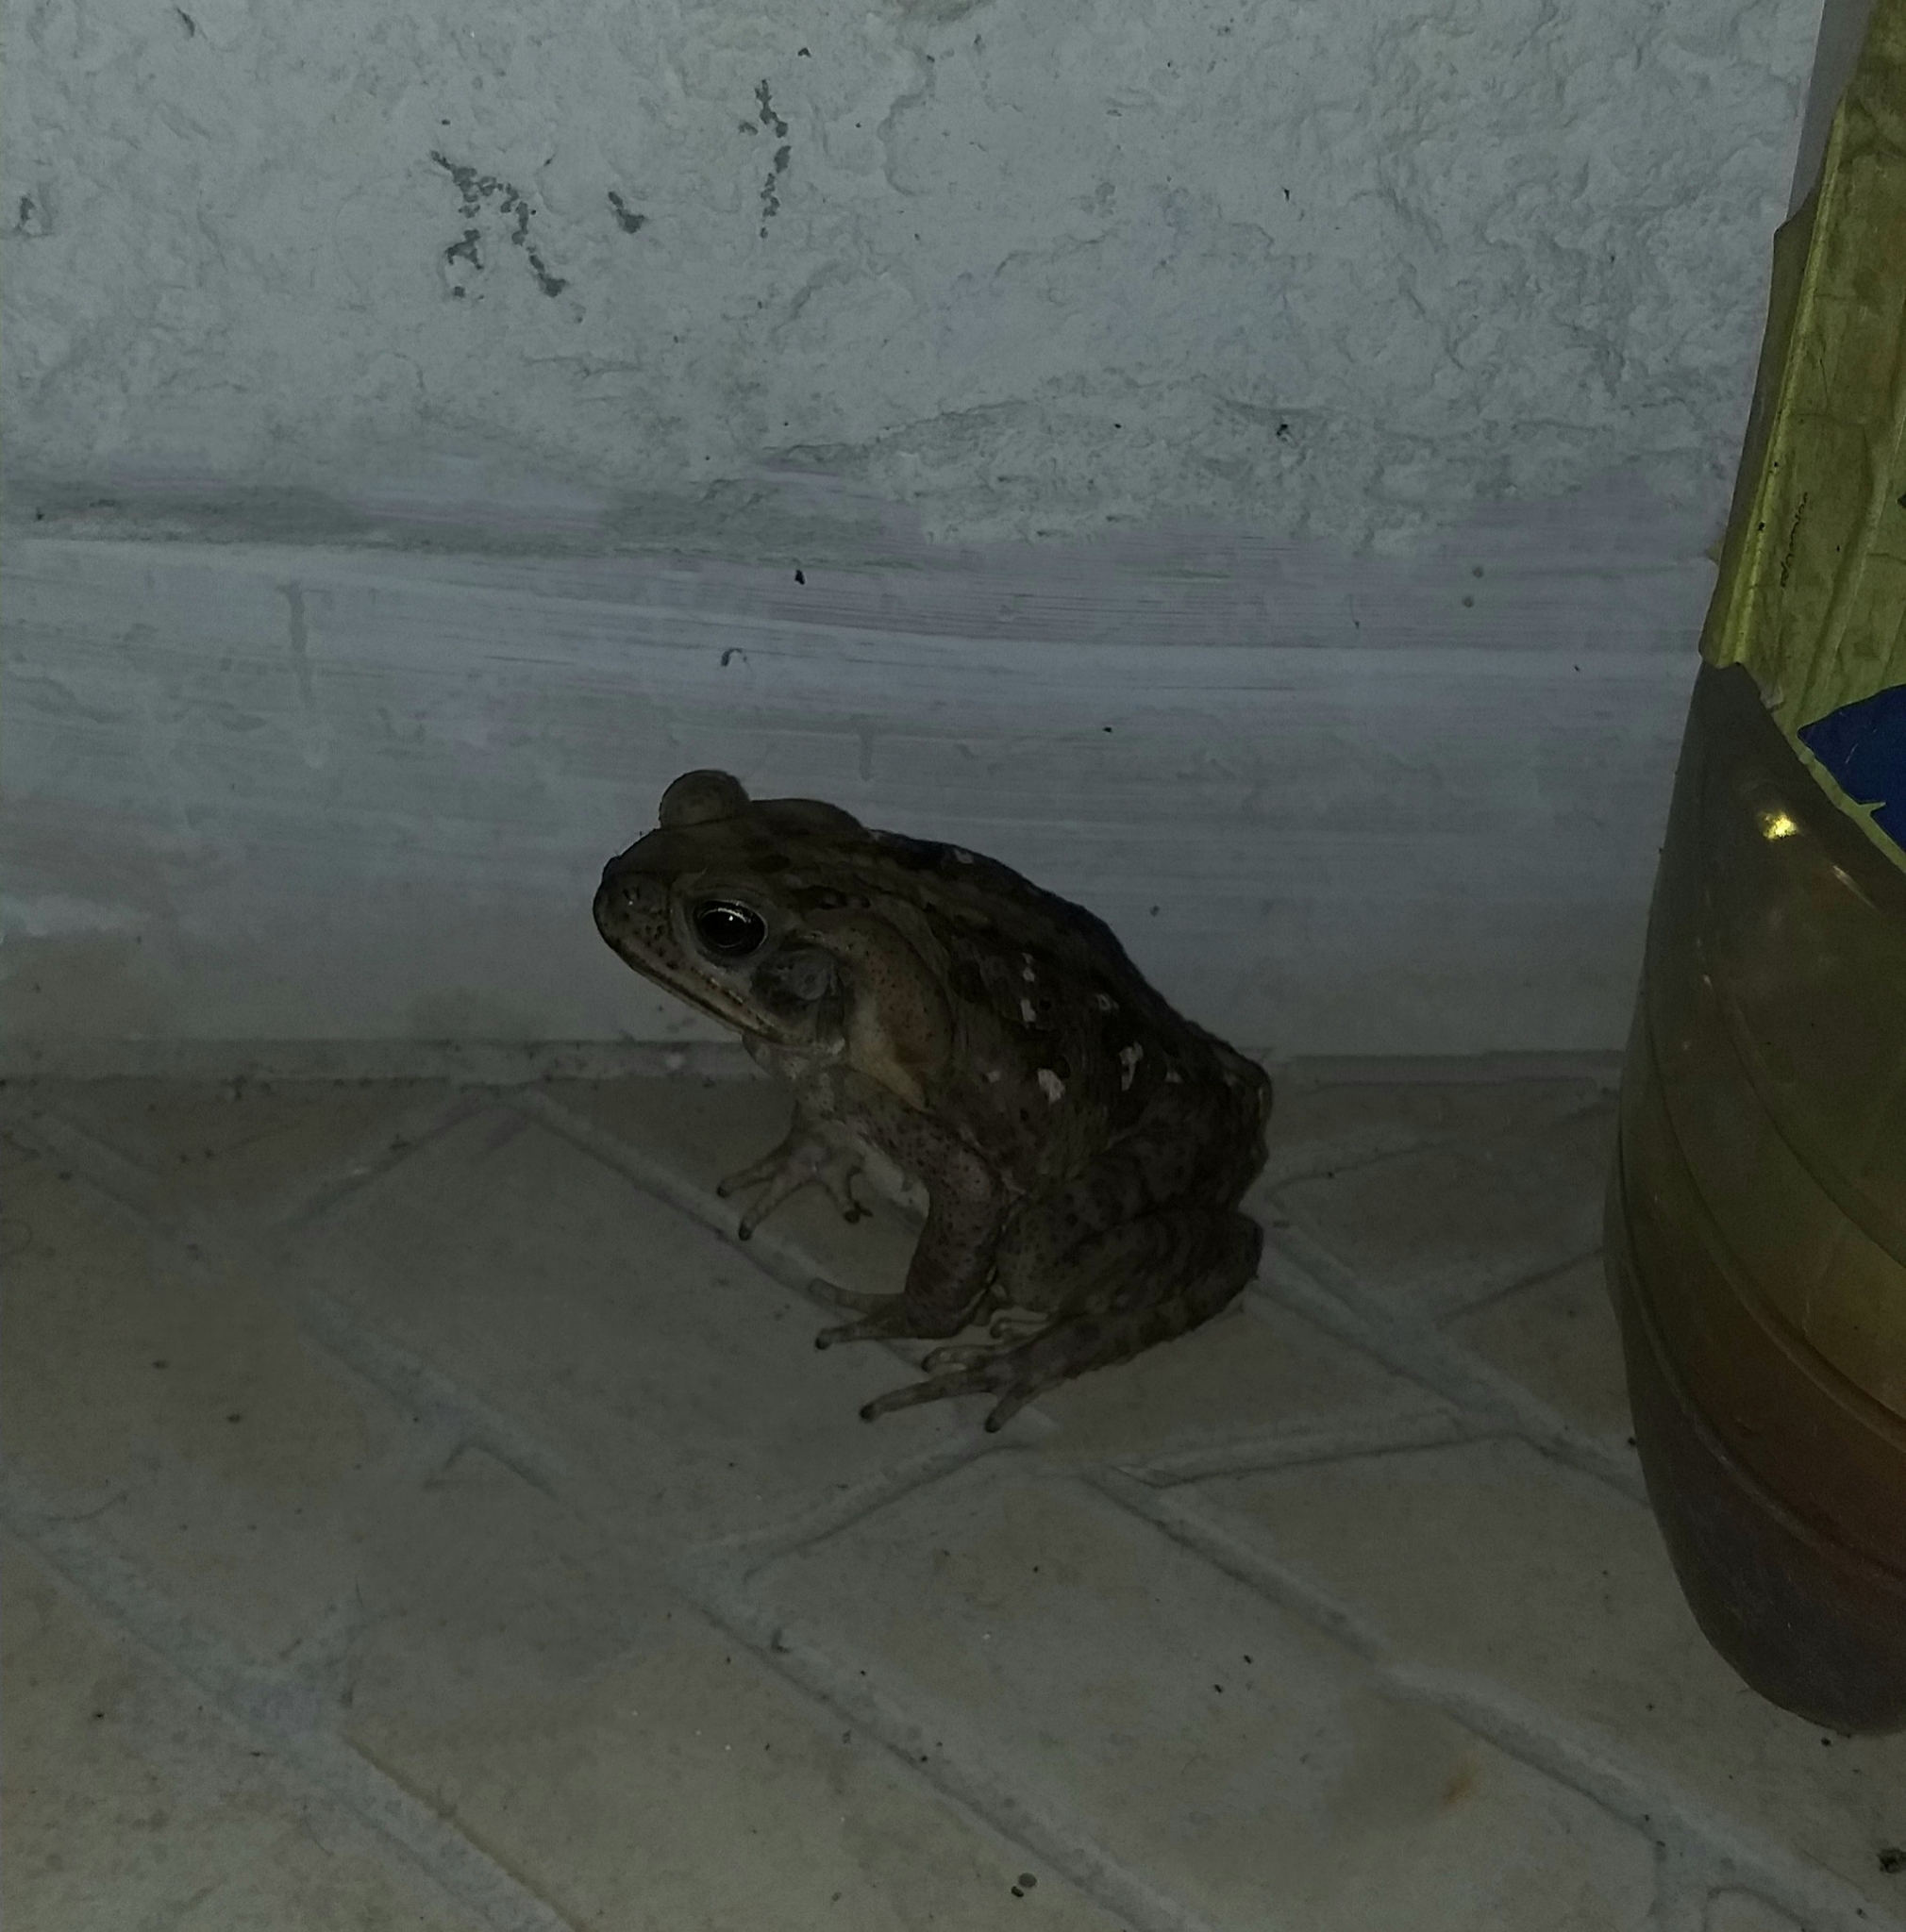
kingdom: Animalia
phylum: Chordata
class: Amphibia
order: Anura
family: Bufonidae
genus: Rhinella
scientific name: Rhinella marina
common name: Cane toad
